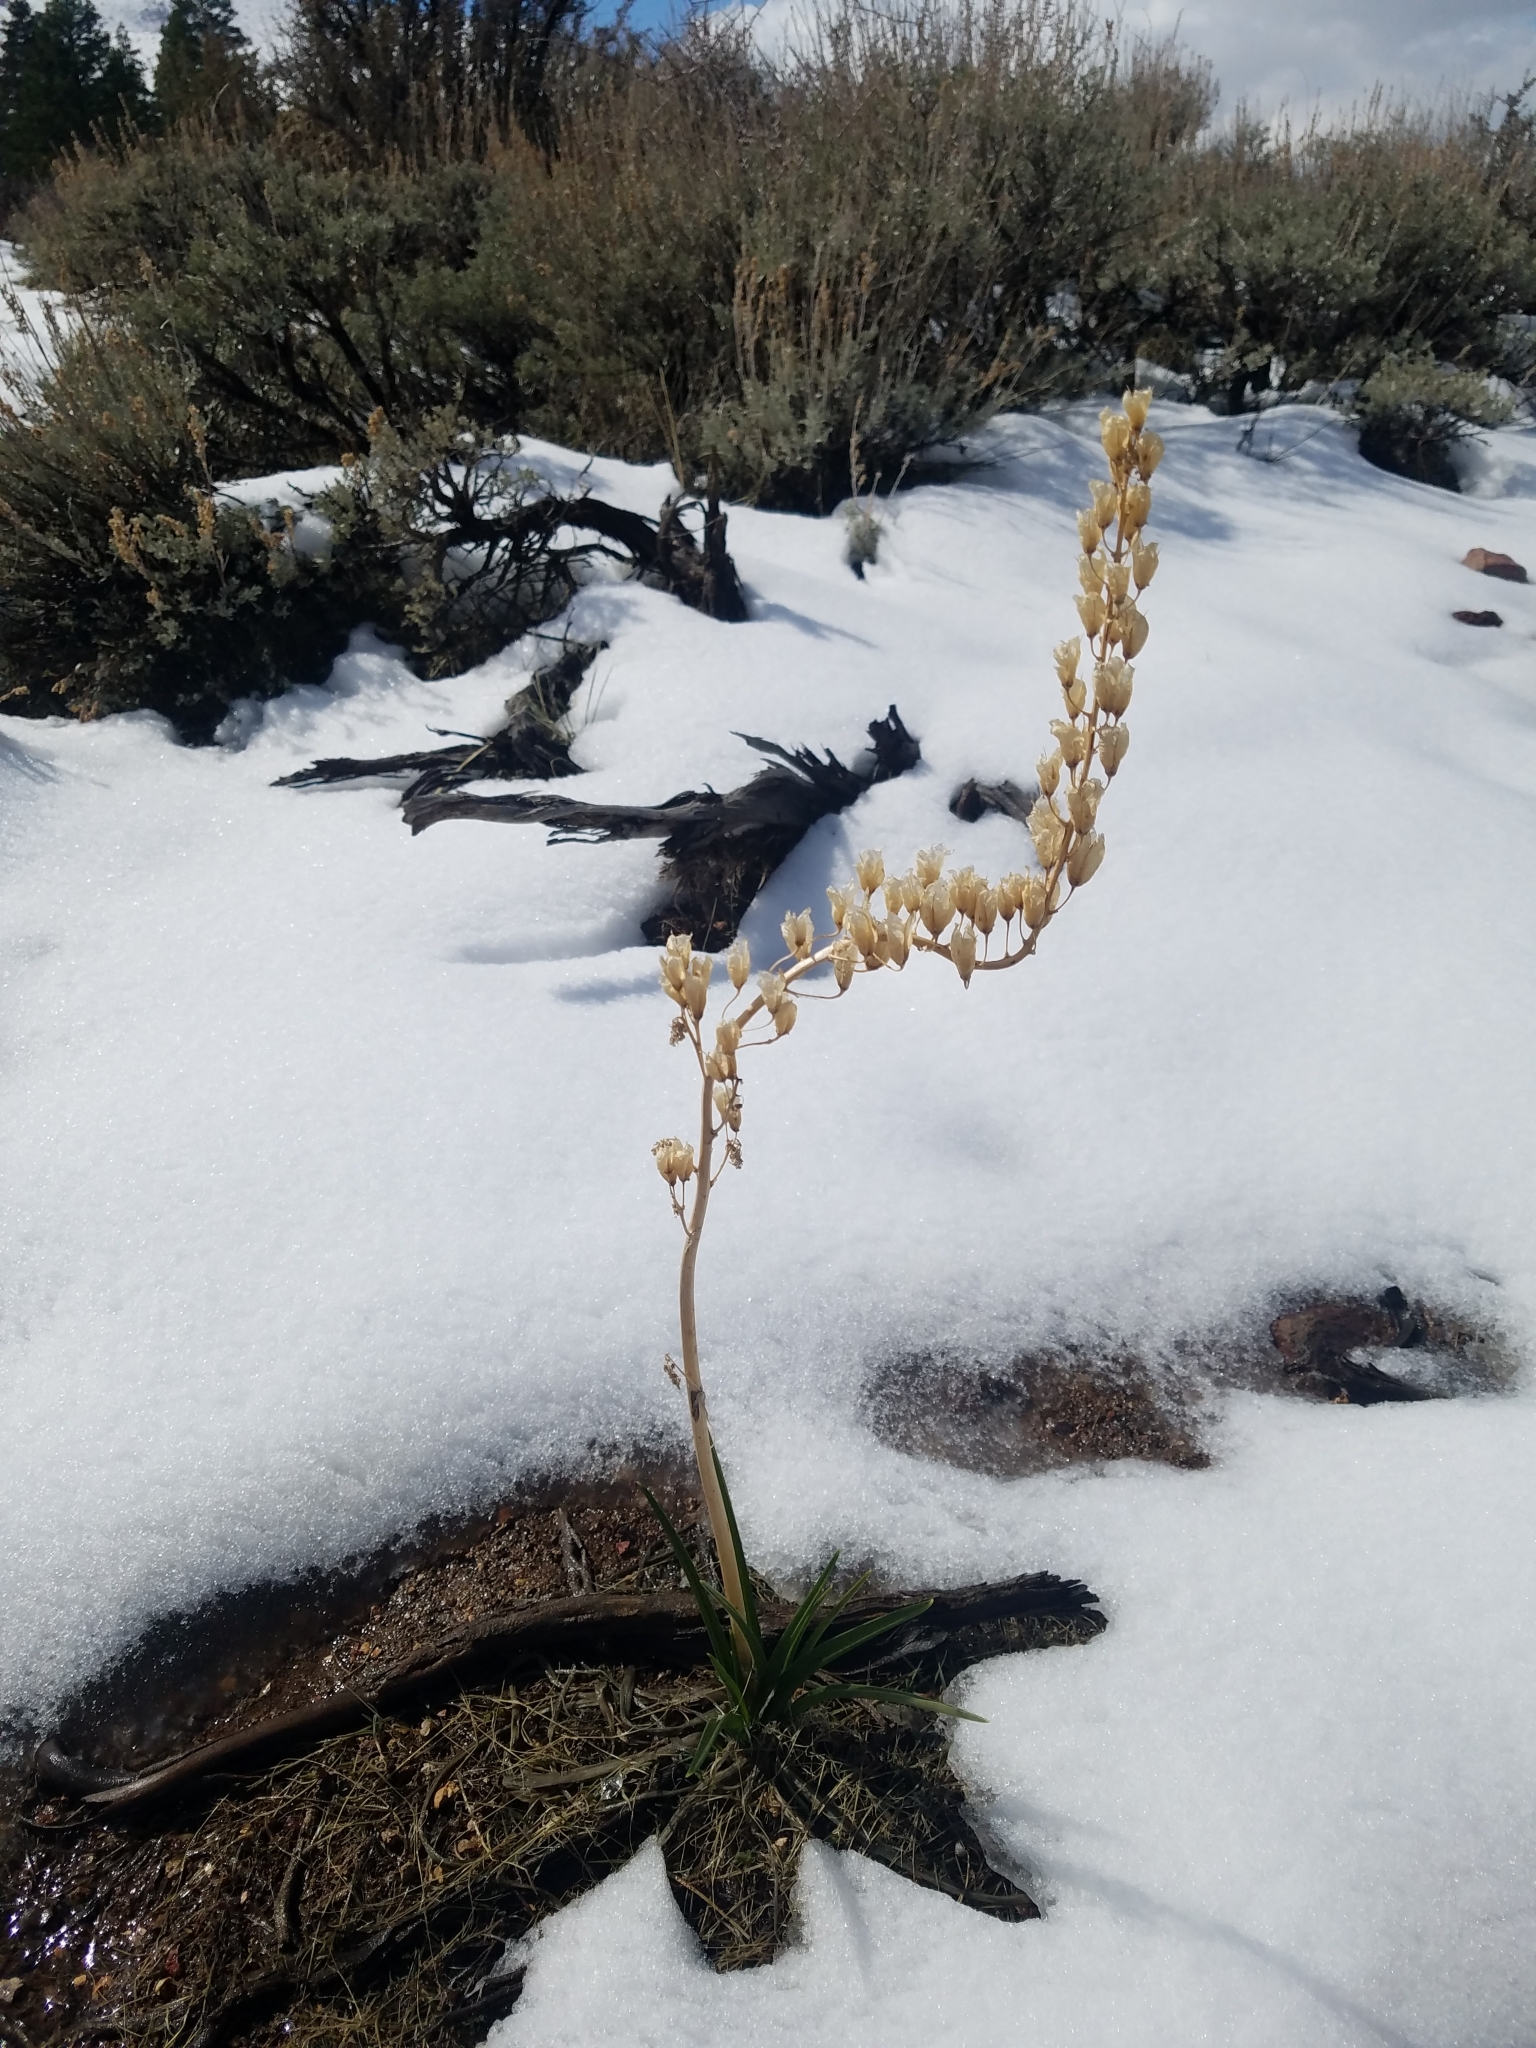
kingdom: Plantae
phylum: Tracheophyta
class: Liliopsida
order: Liliales
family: Melanthiaceae
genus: Toxicoscordion
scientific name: Toxicoscordion paniculatum
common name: Foothill death camas
